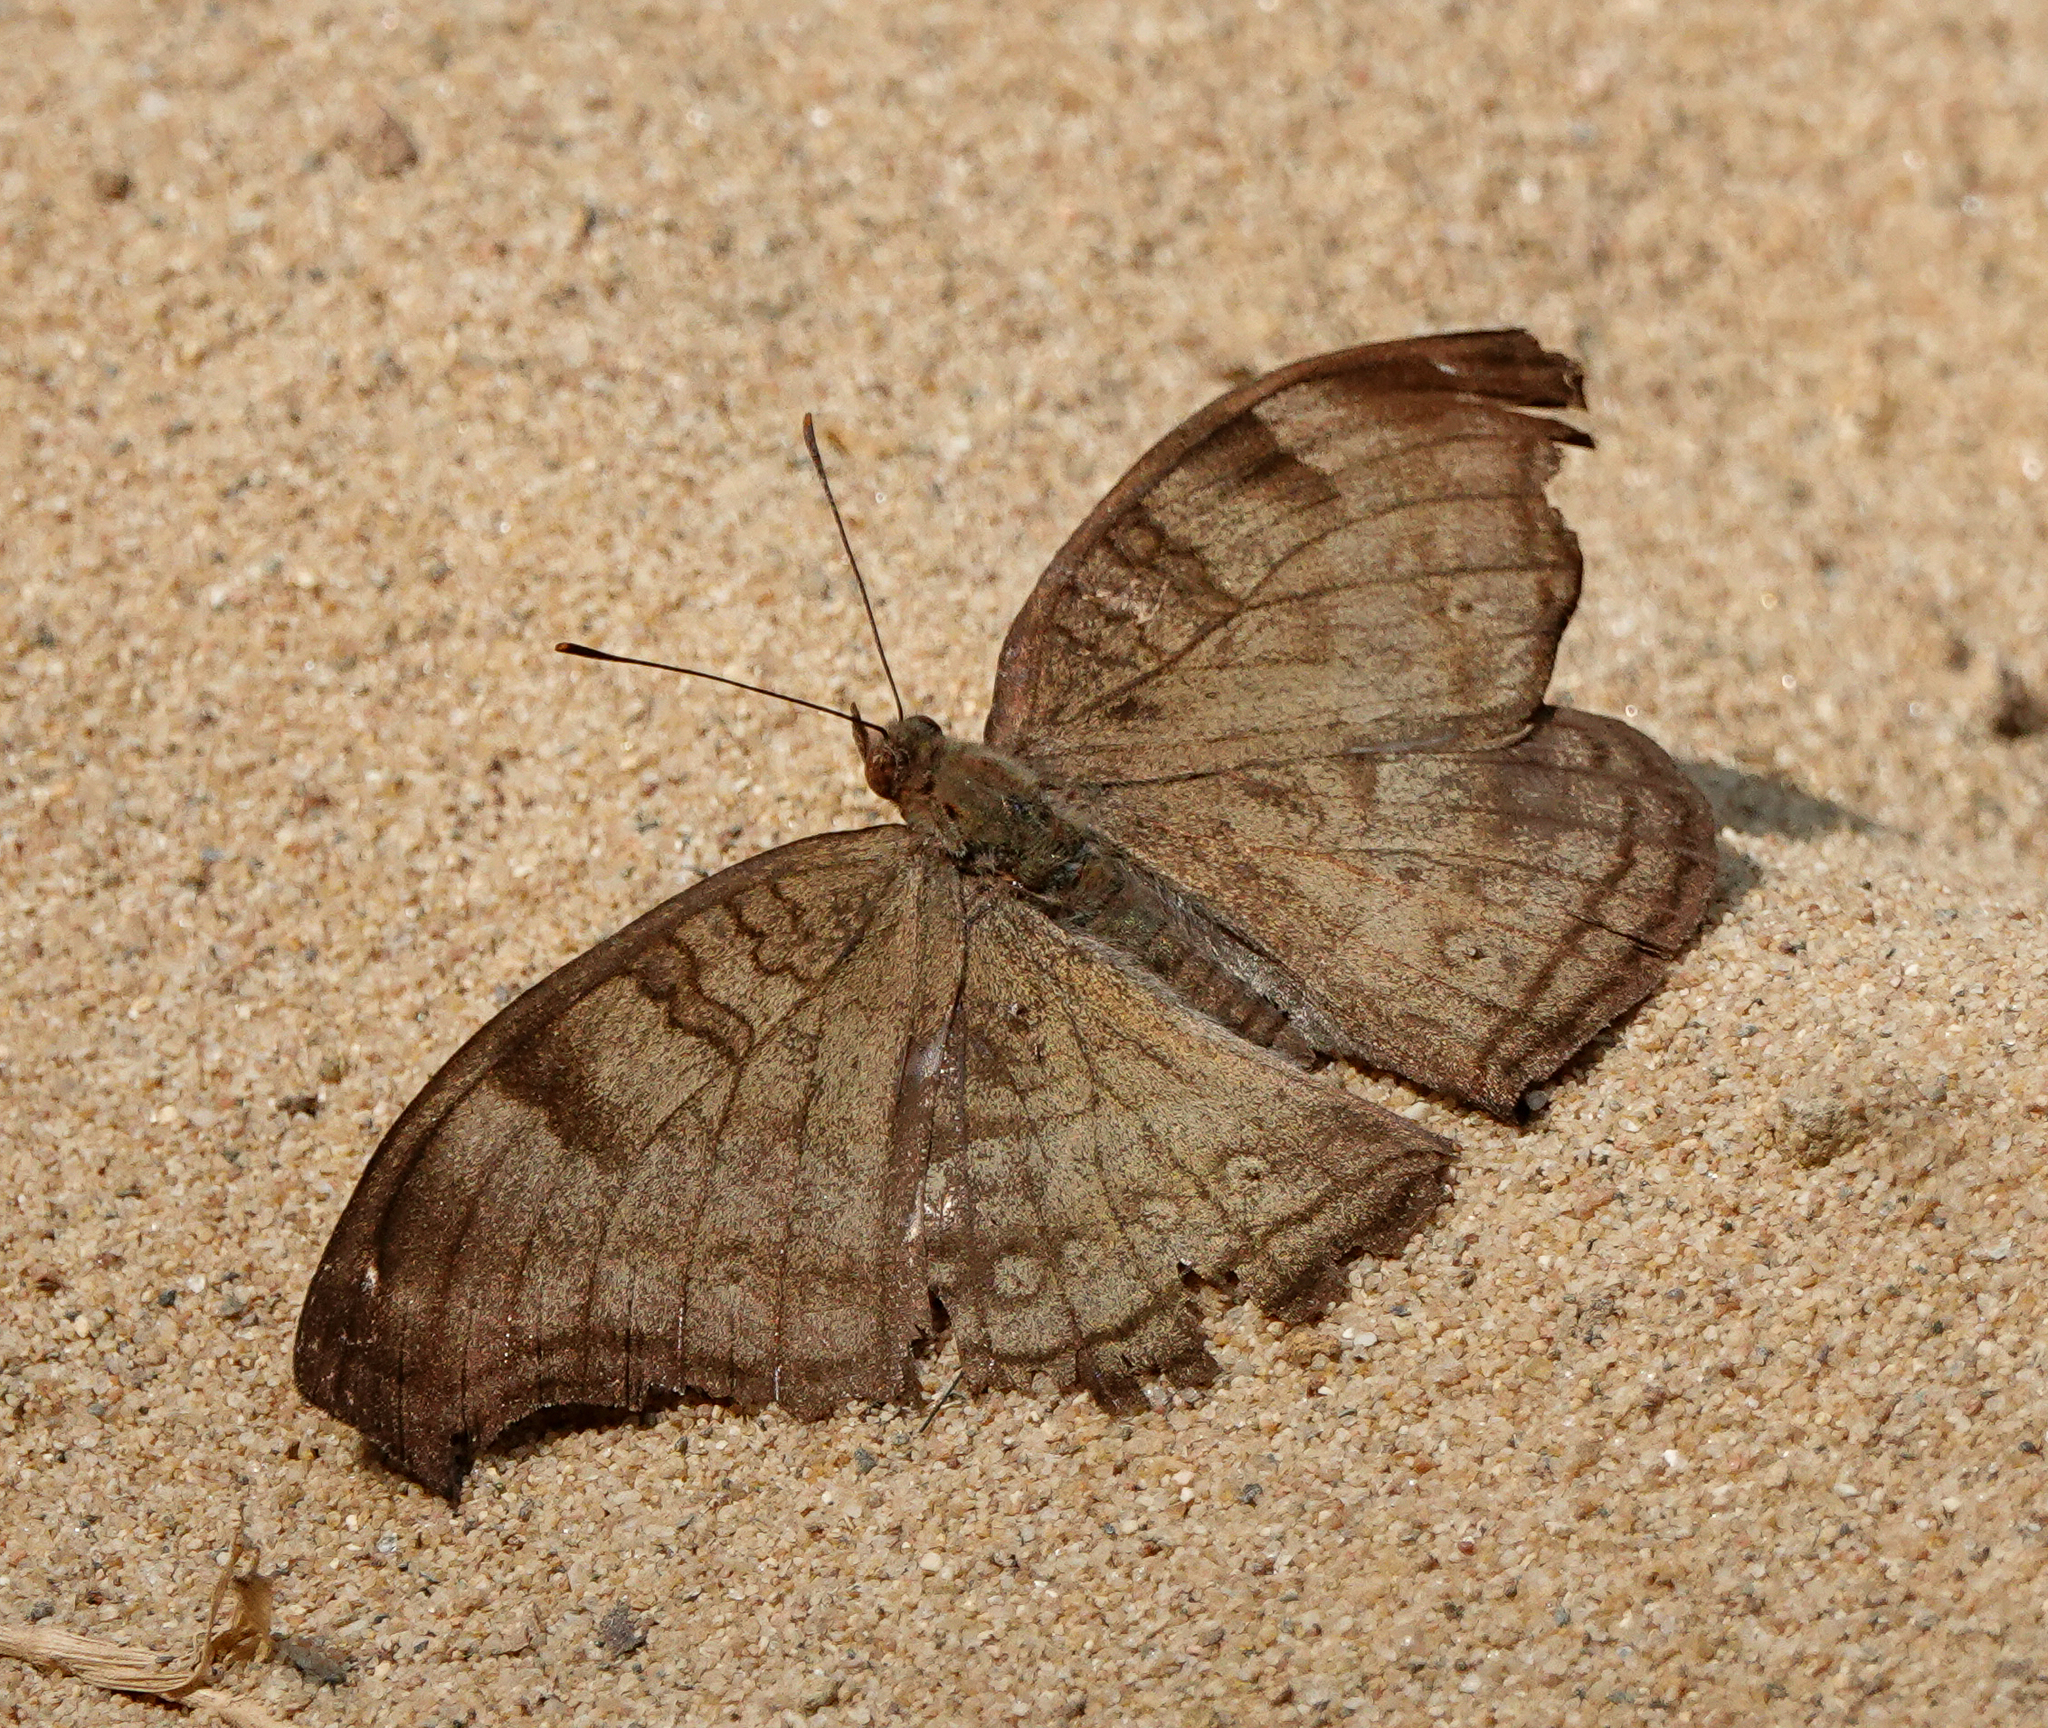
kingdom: Animalia
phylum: Arthropoda
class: Insecta
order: Lepidoptera
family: Nymphalidae
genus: Junonia
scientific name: Junonia iphita
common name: Chocolate pansy
